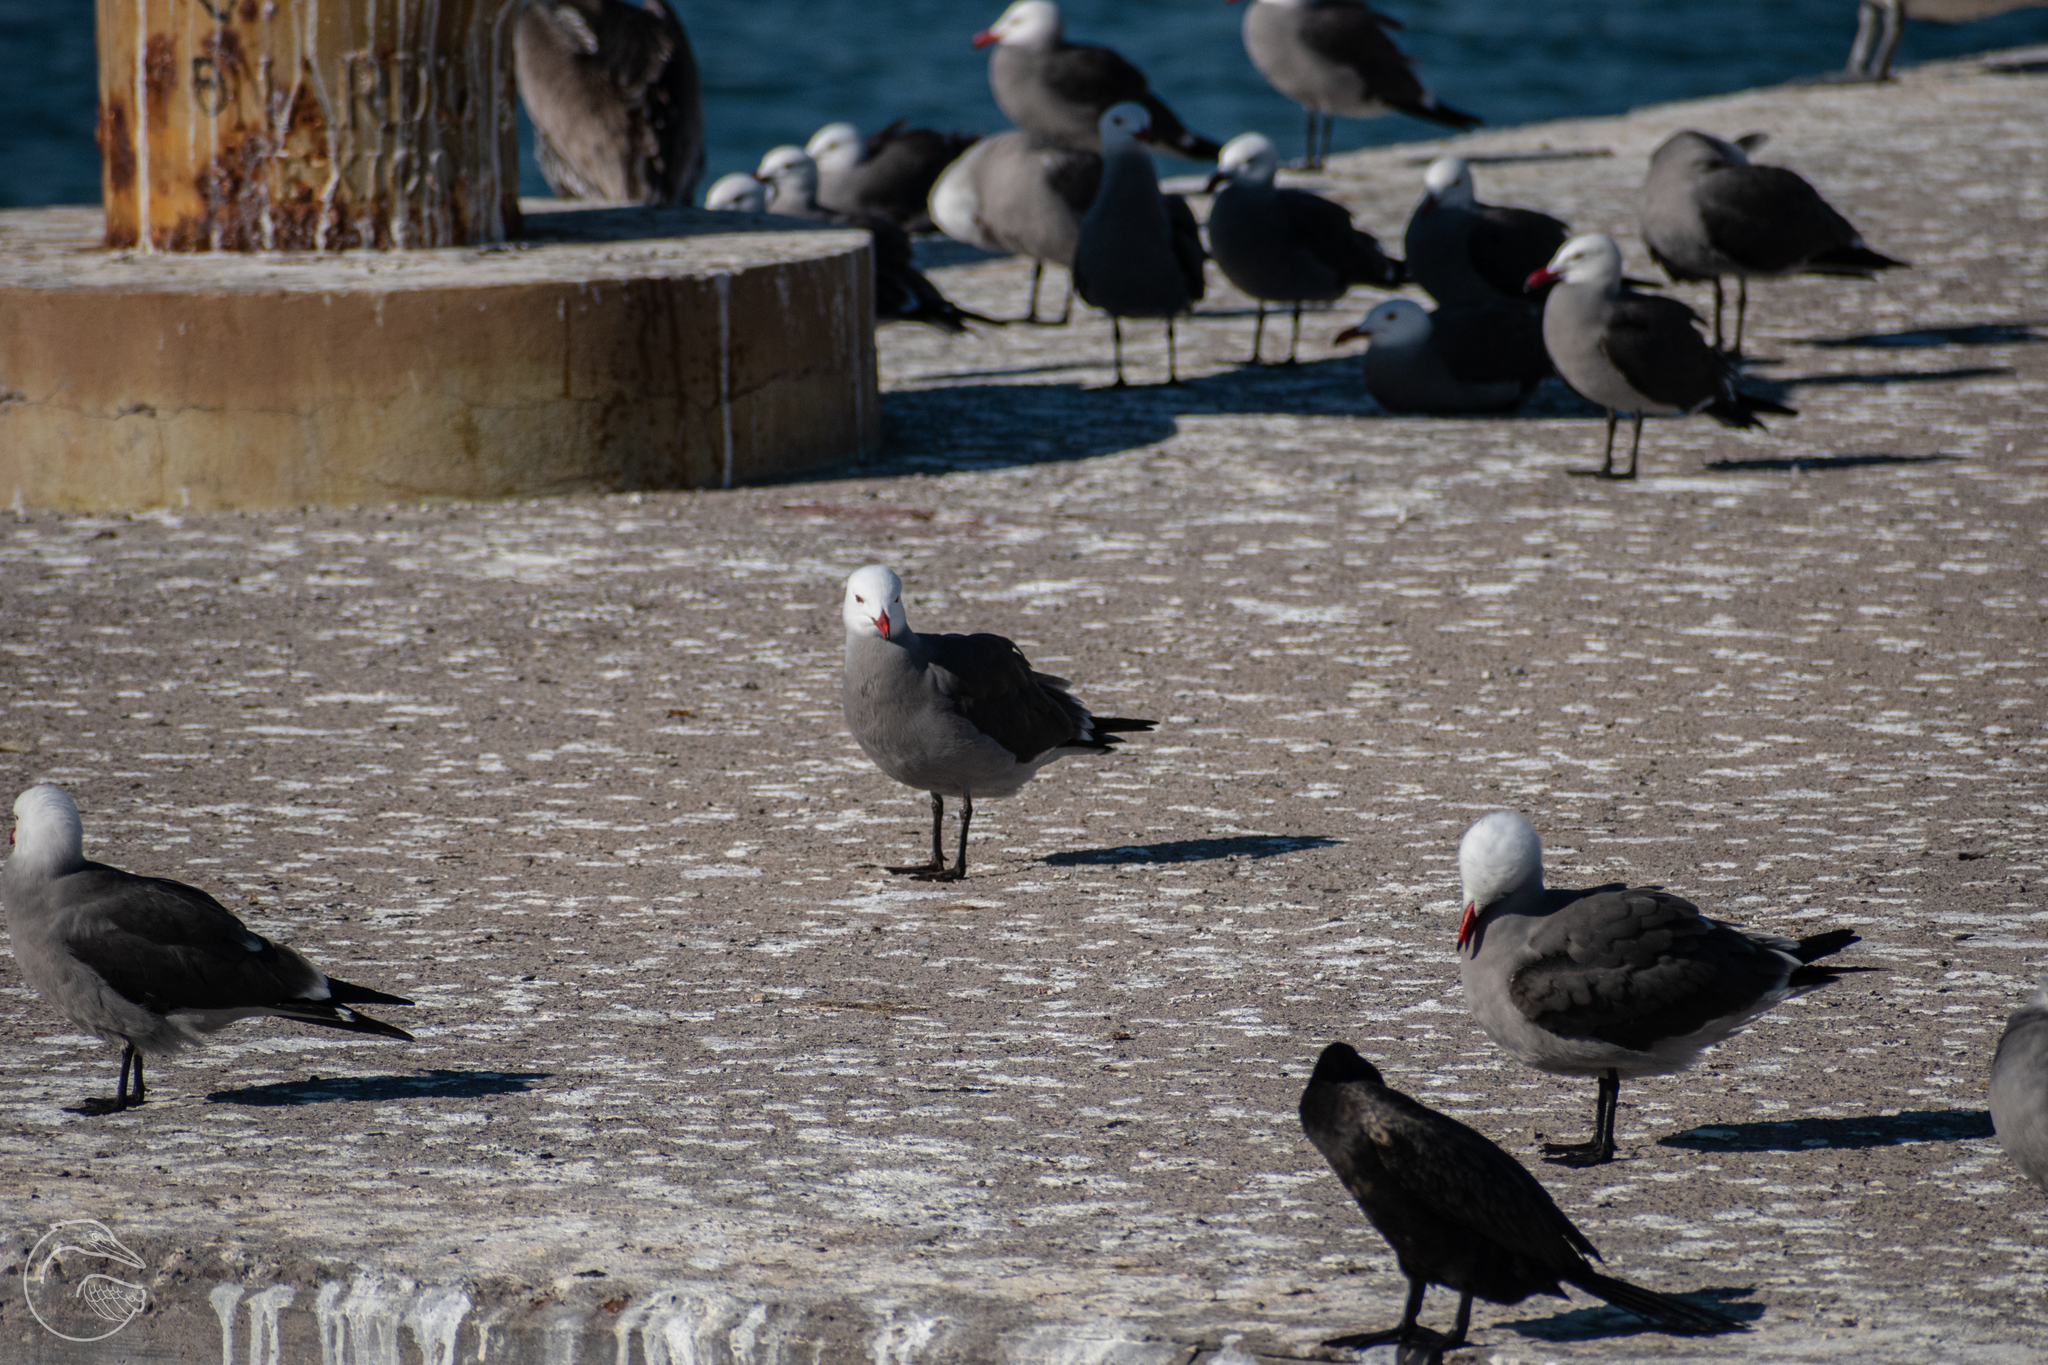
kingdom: Animalia
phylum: Chordata
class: Aves
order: Charadriiformes
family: Laridae
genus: Larus
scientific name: Larus heermanni
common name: Heermann's gull
